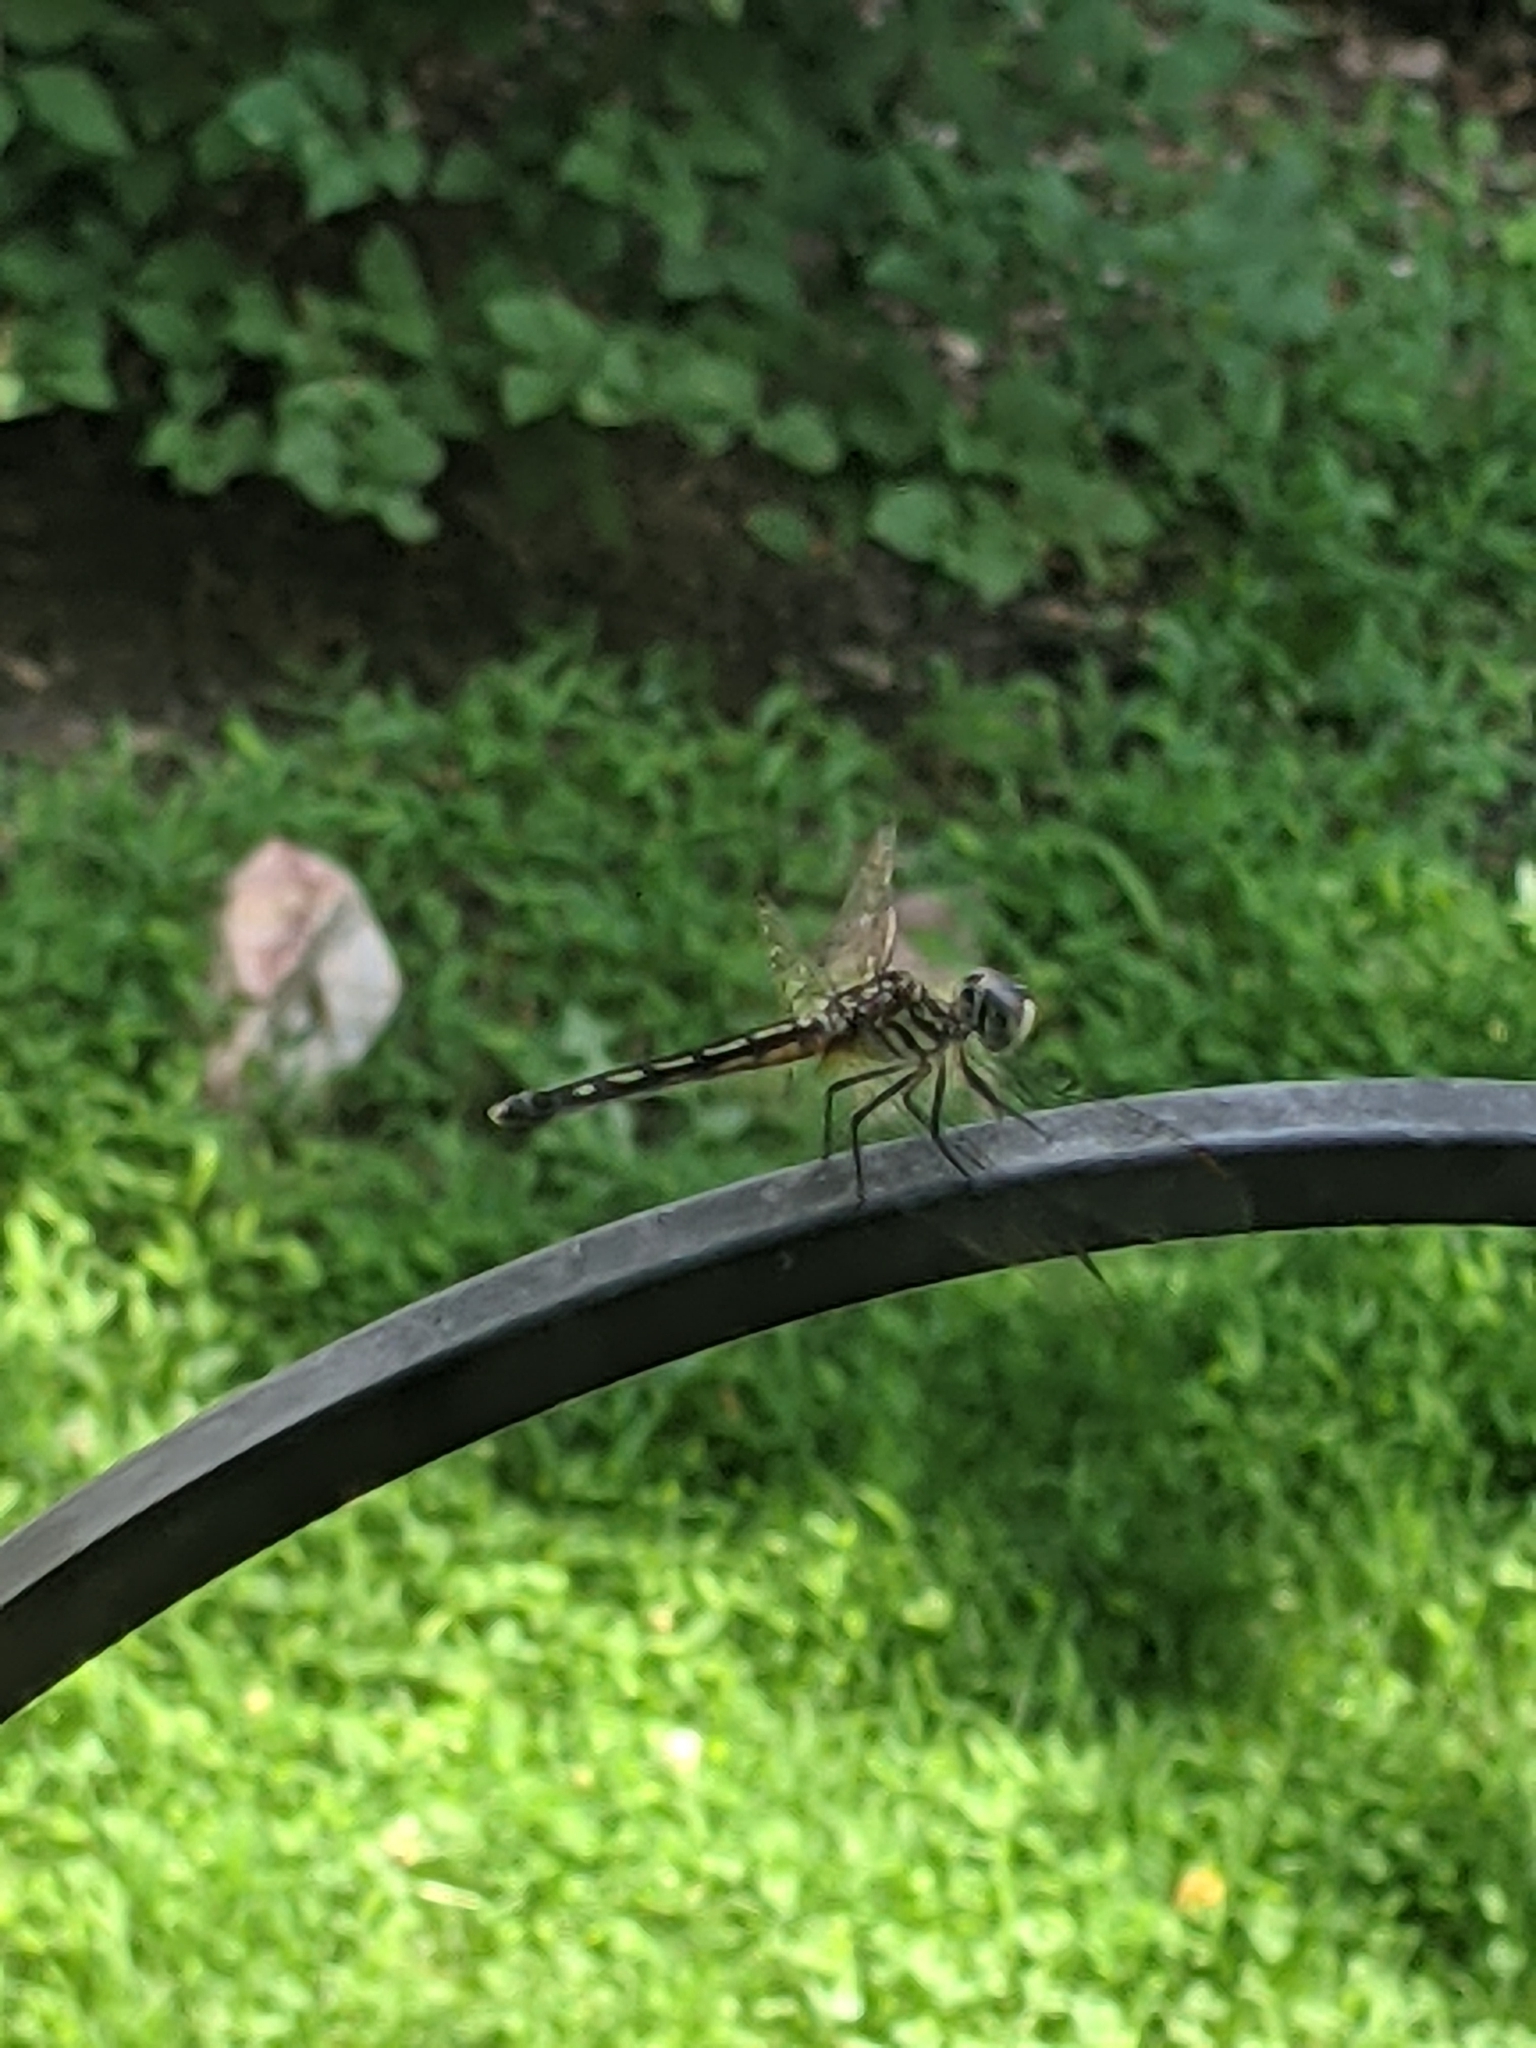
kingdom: Animalia
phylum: Arthropoda
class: Insecta
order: Odonata
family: Libellulidae
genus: Pachydiplax
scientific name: Pachydiplax longipennis
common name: Blue dasher
